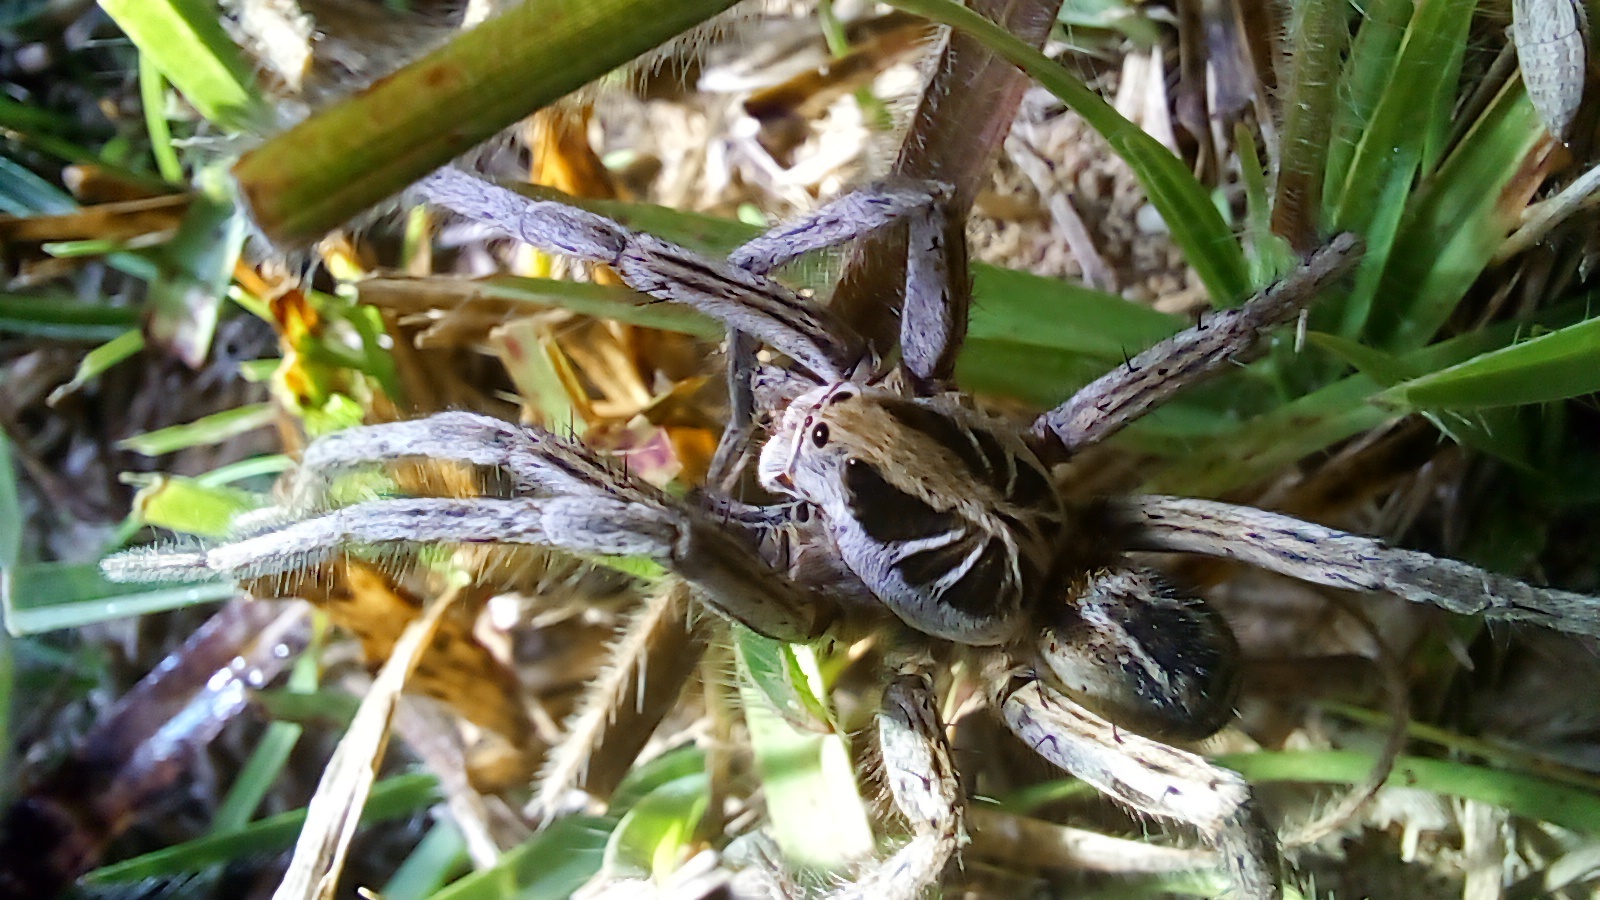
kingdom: Animalia
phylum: Arthropoda
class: Arachnida
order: Araneae
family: Lycosidae
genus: Schizocosa
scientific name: Schizocosa malitiosa
